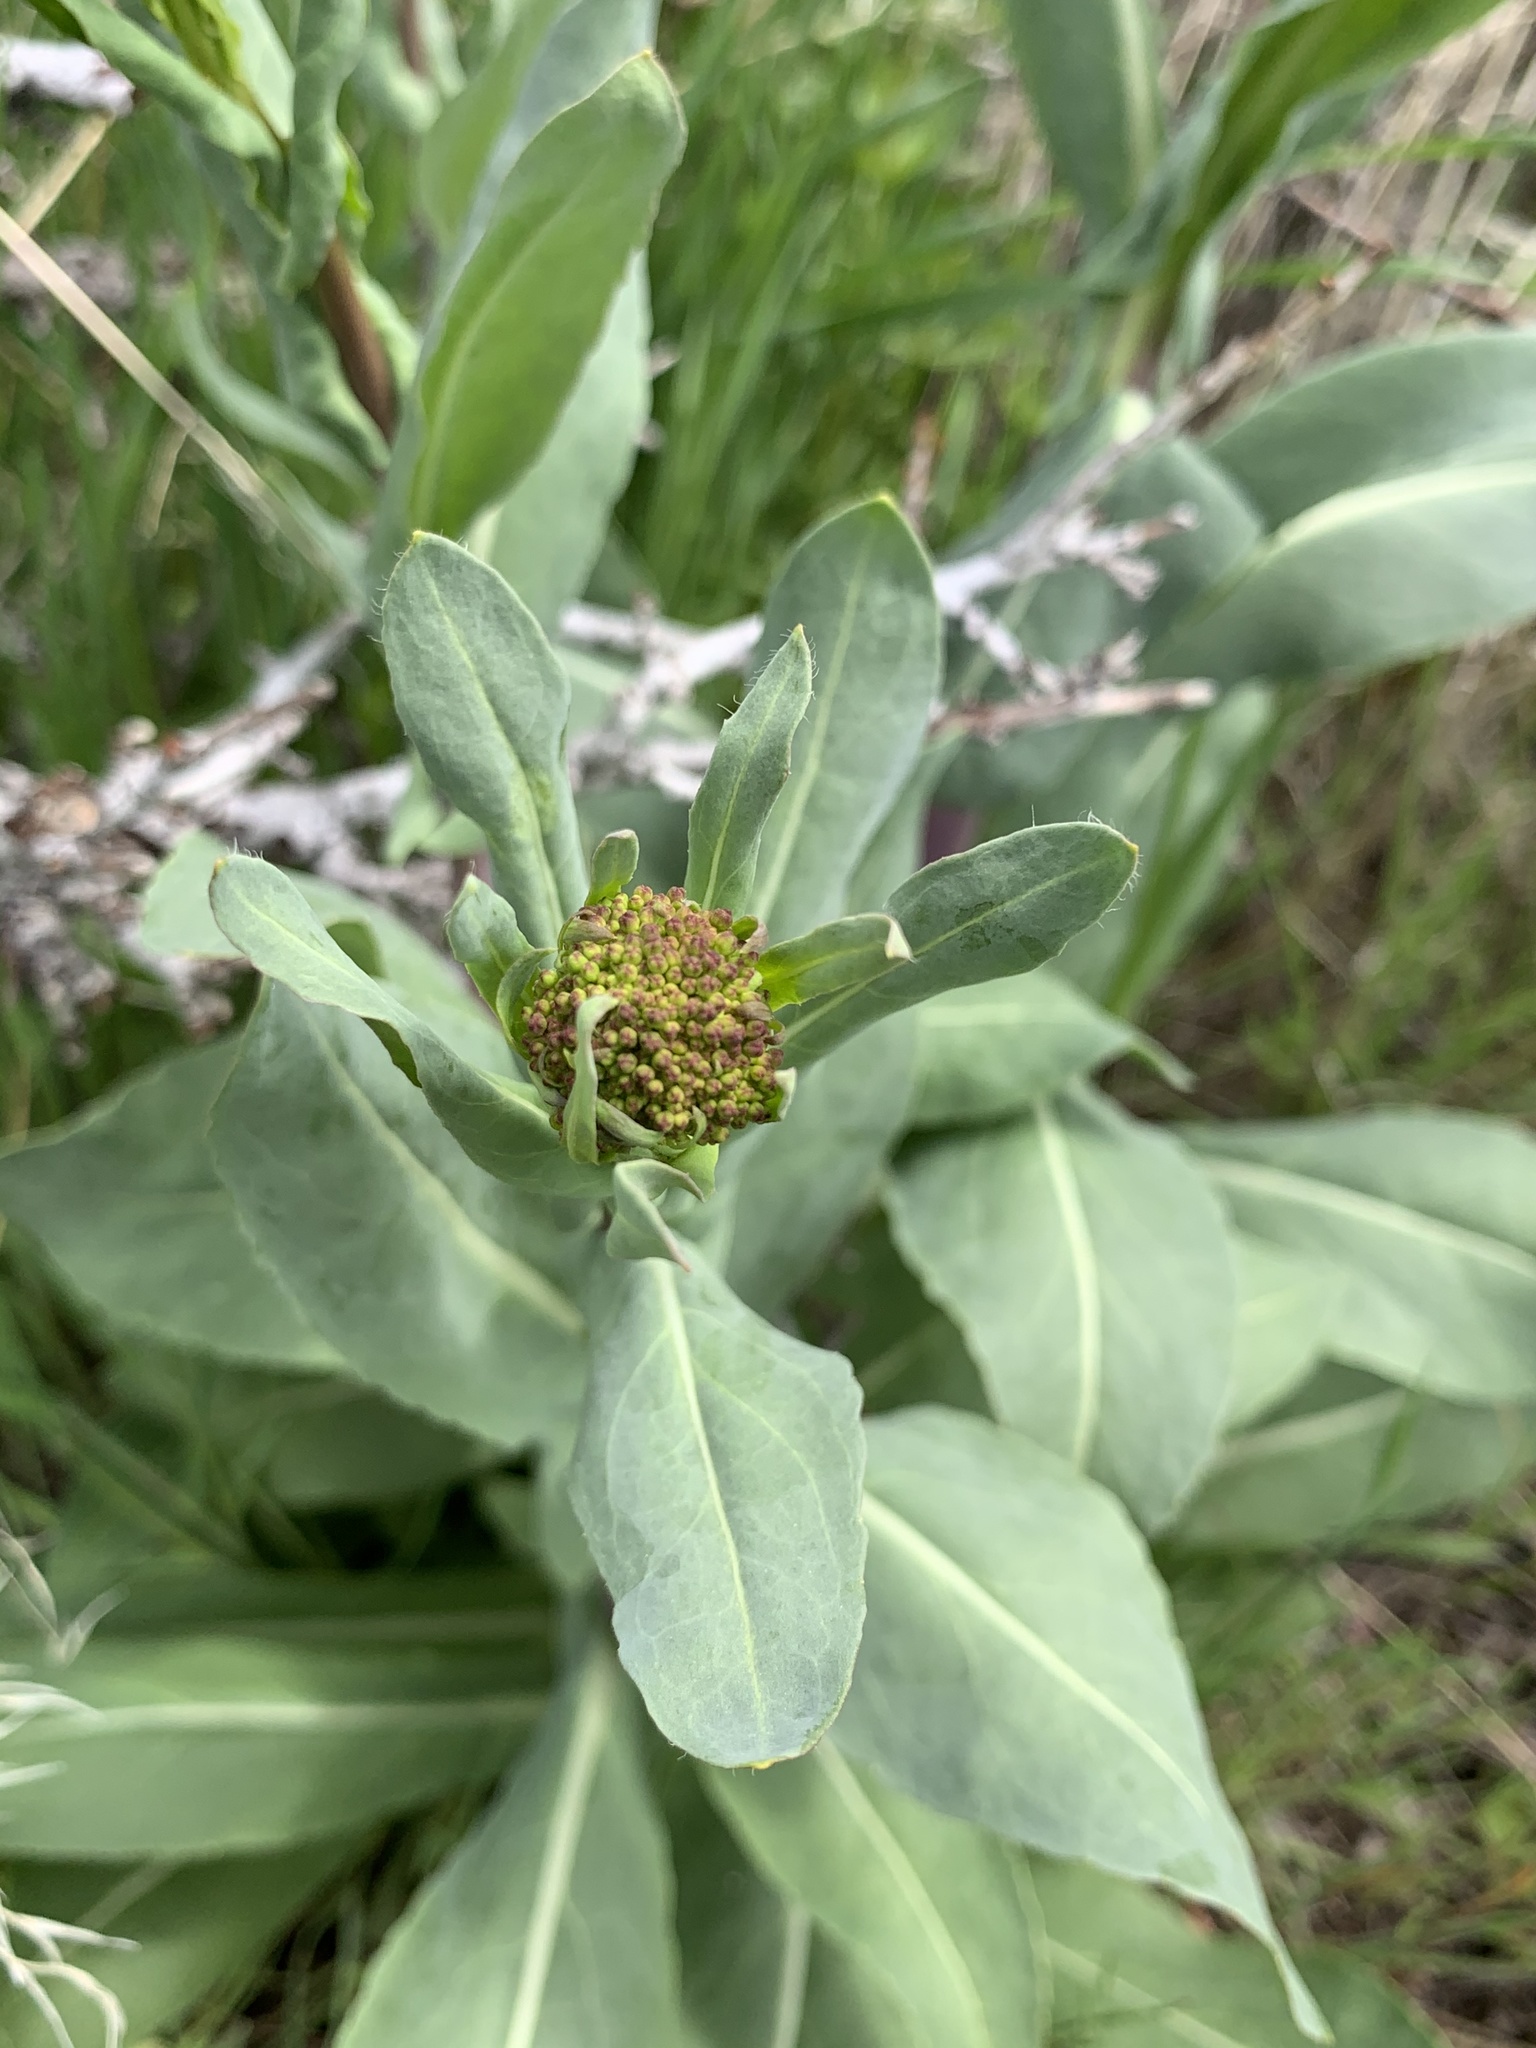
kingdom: Plantae
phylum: Tracheophyta
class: Magnoliopsida
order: Brassicales
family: Brassicaceae
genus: Isatis
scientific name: Isatis tinctoria
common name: Woad
